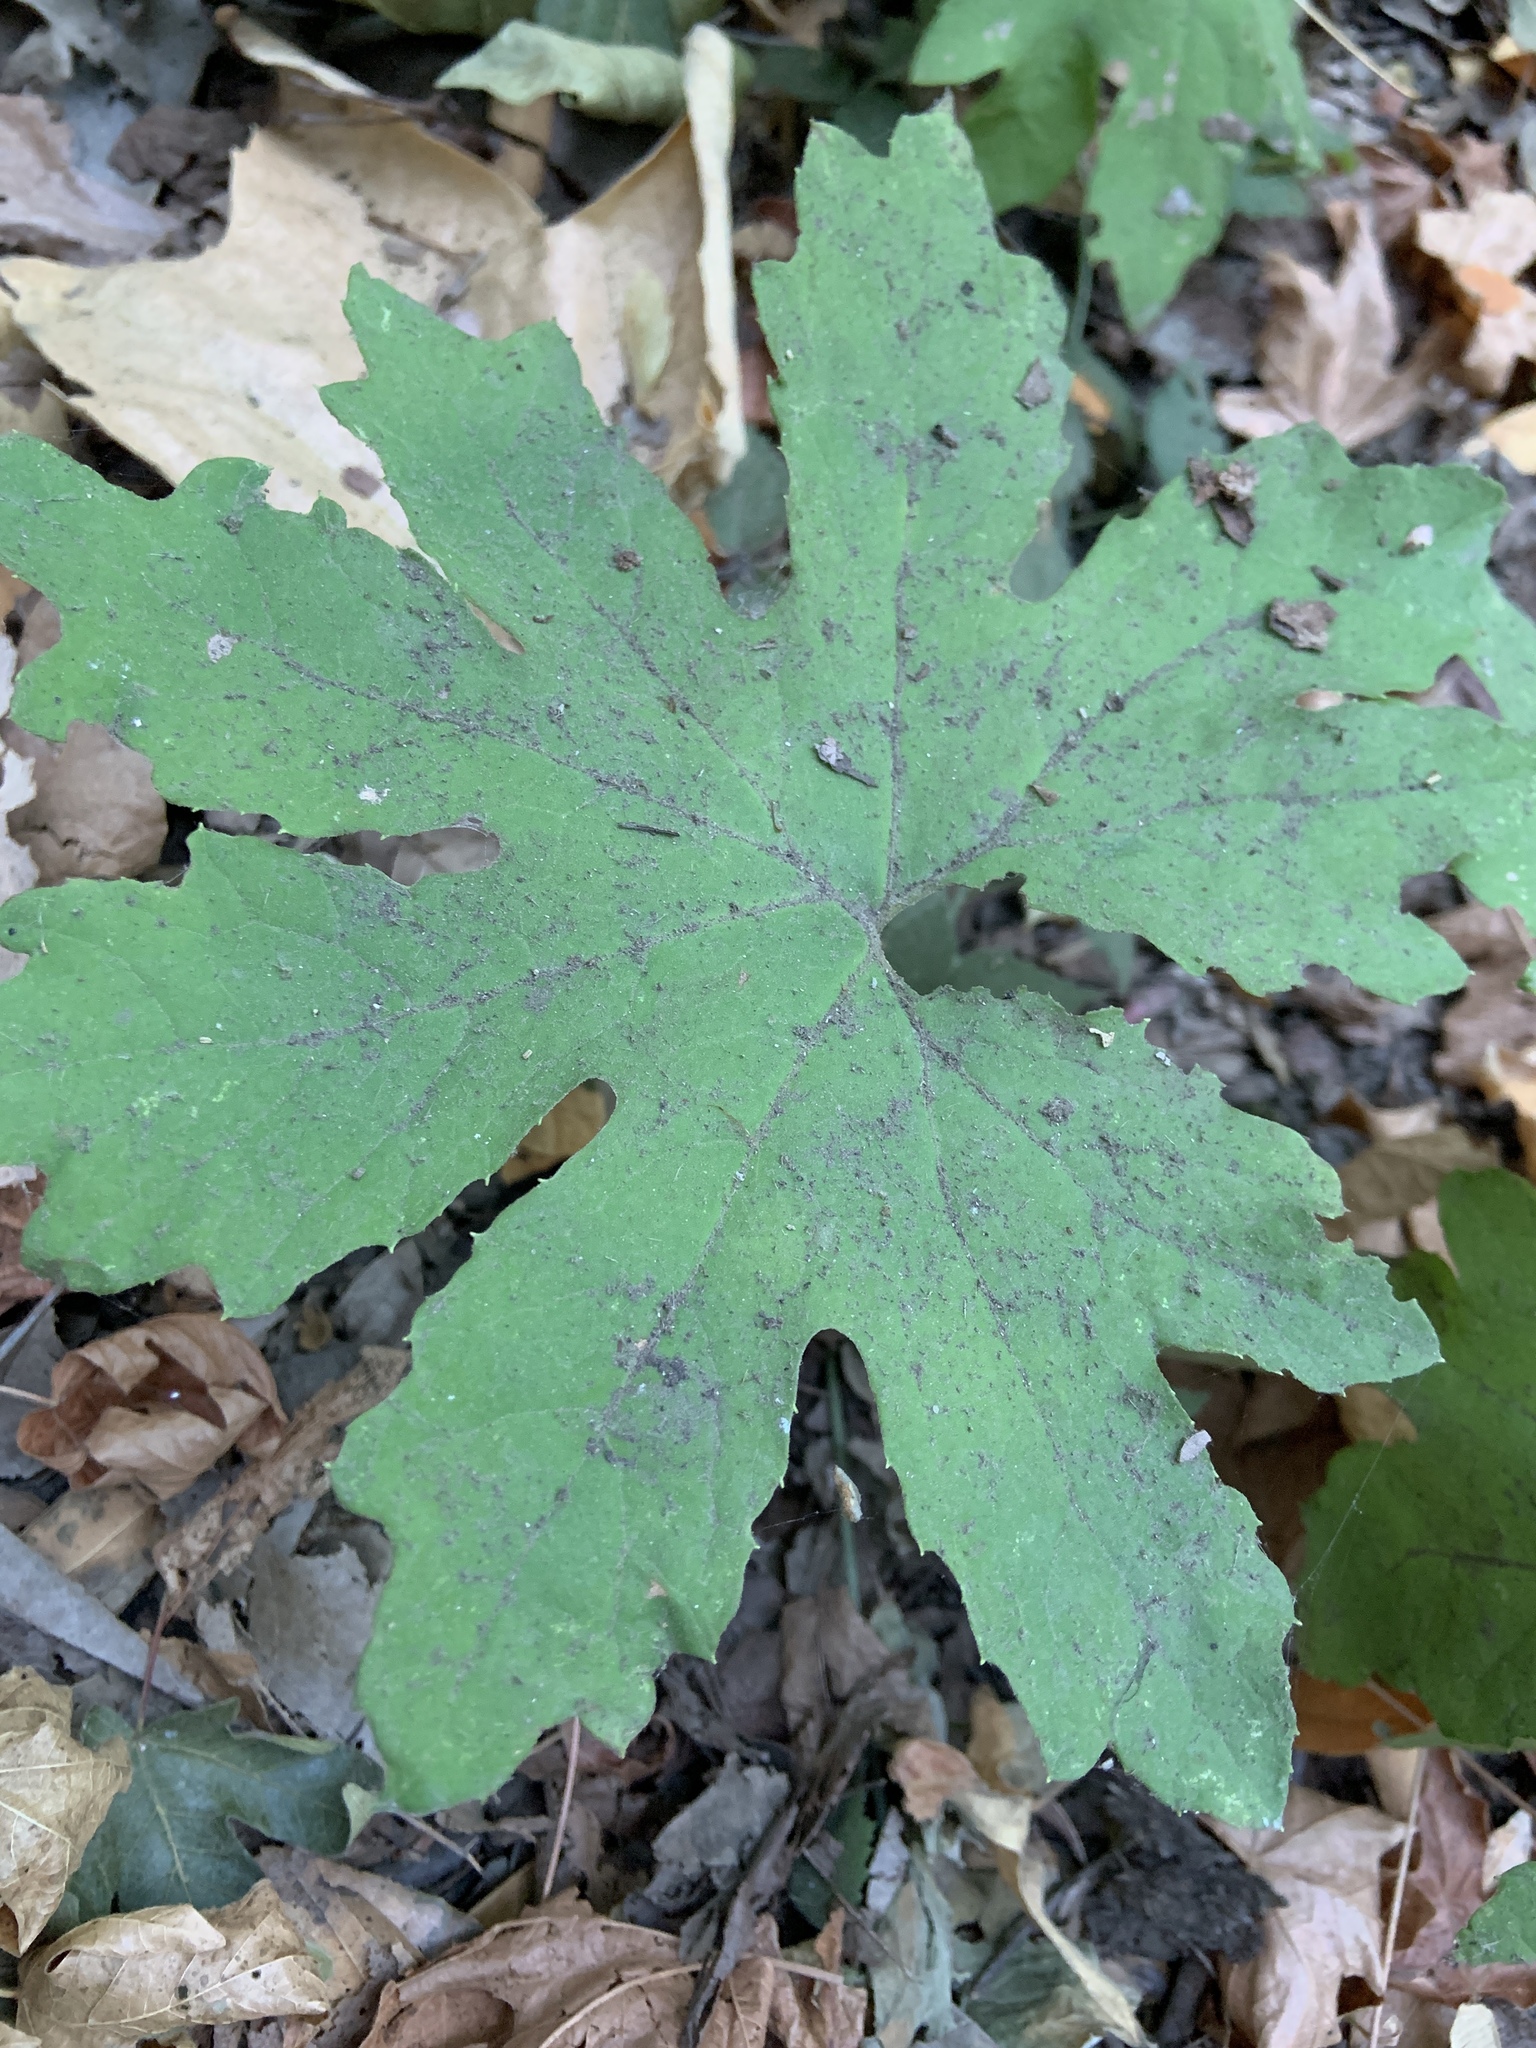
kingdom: Plantae
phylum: Tracheophyta
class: Magnoliopsida
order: Asterales
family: Asteraceae
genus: Petasites
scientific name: Petasites frigidus
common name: Arctic butterbur
